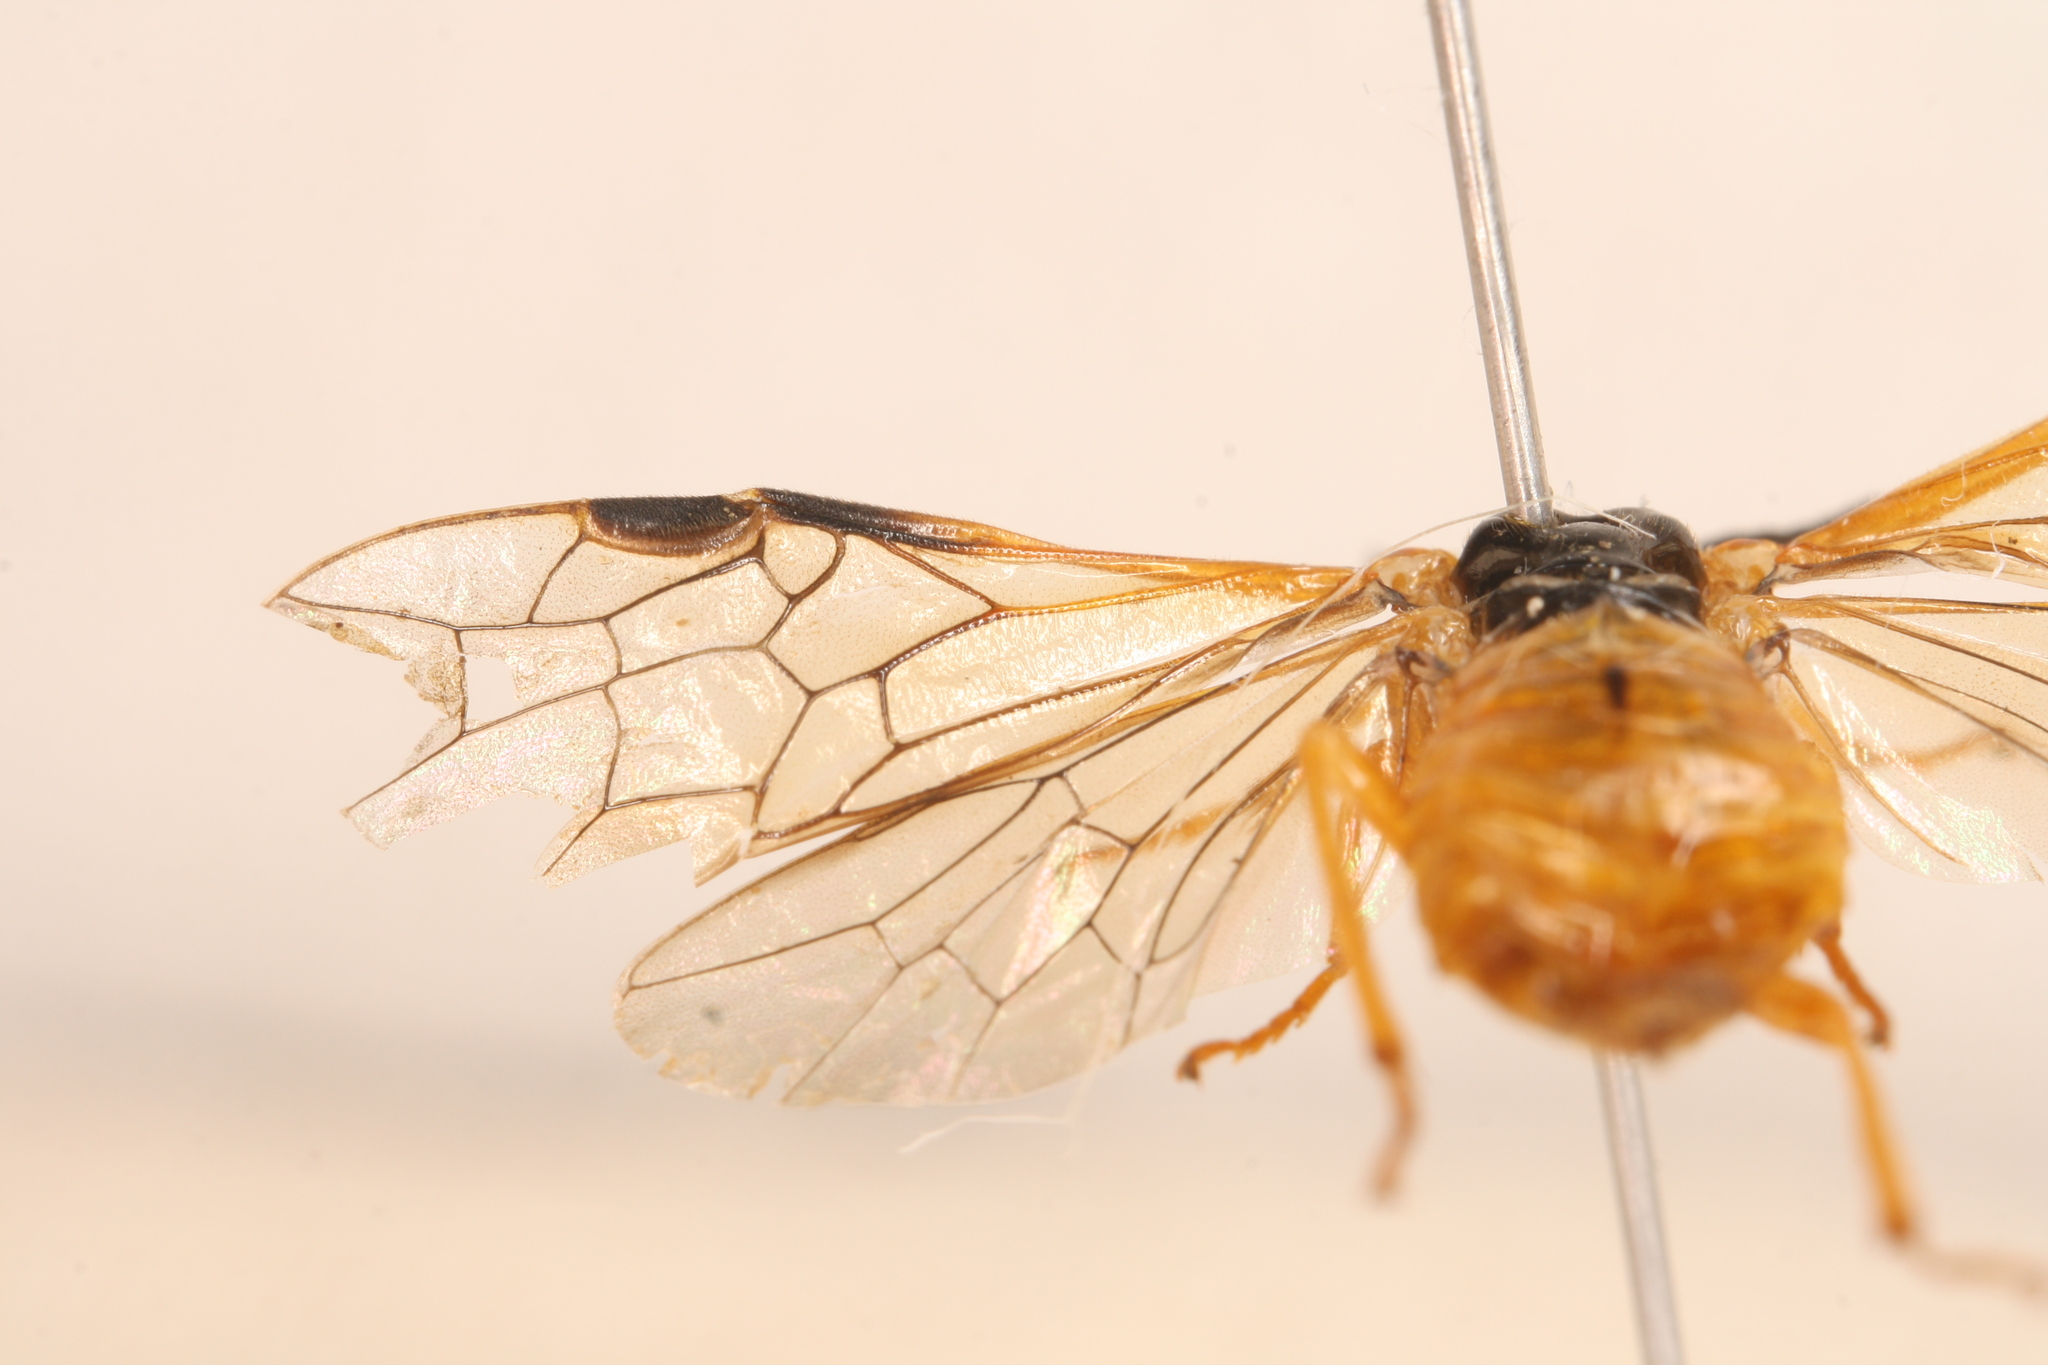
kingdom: Animalia
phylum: Arthropoda
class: Insecta
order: Hymenoptera
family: Tenthredinidae
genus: Selandria
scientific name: Selandria serva
